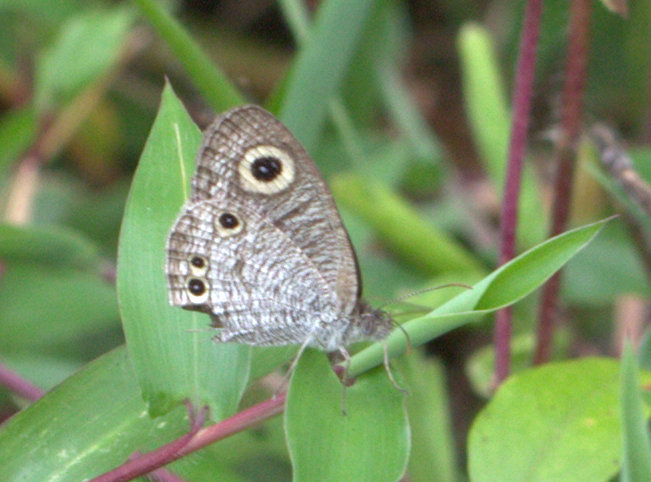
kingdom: Animalia
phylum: Arthropoda
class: Insecta
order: Lepidoptera
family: Nymphalidae
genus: Ypthima
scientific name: Ypthima huebneri
